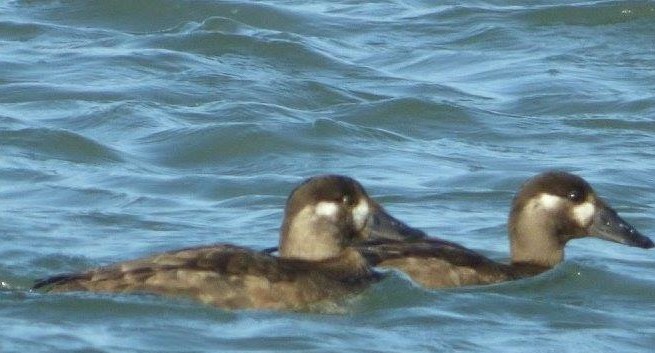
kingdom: Animalia
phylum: Chordata
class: Aves
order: Anseriformes
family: Anatidae
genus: Melanitta
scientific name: Melanitta perspicillata
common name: Surf scoter
